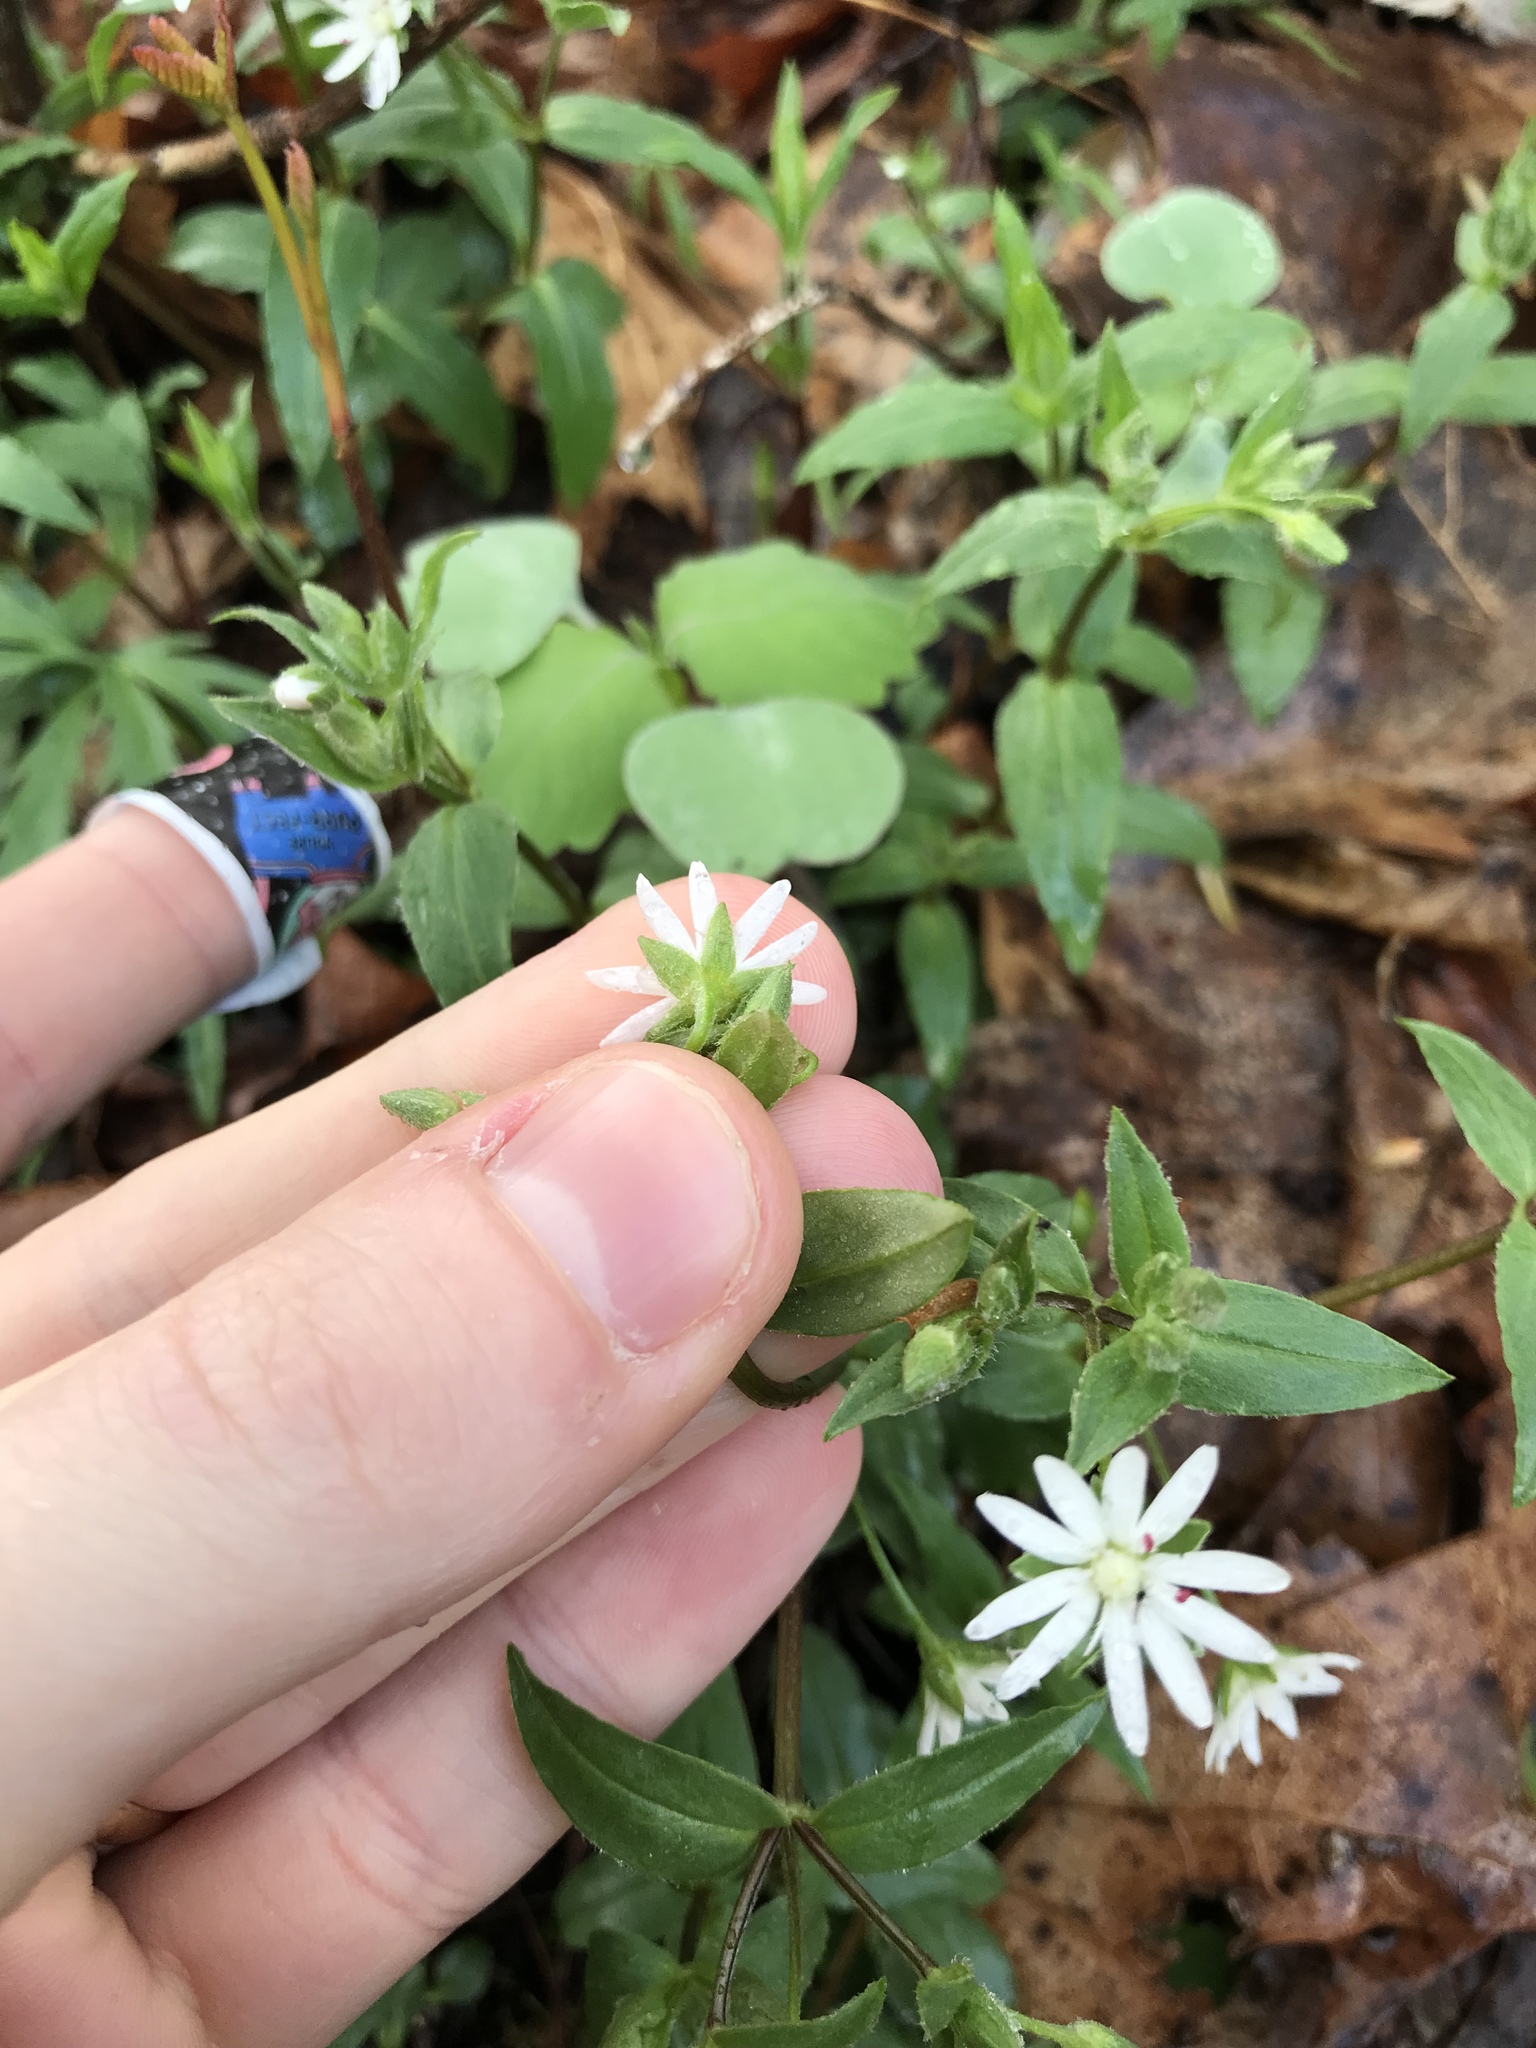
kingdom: Plantae
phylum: Tracheophyta
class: Magnoliopsida
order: Caryophyllales
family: Caryophyllaceae
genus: Stellaria
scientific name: Stellaria pubera
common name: Star chickweed
